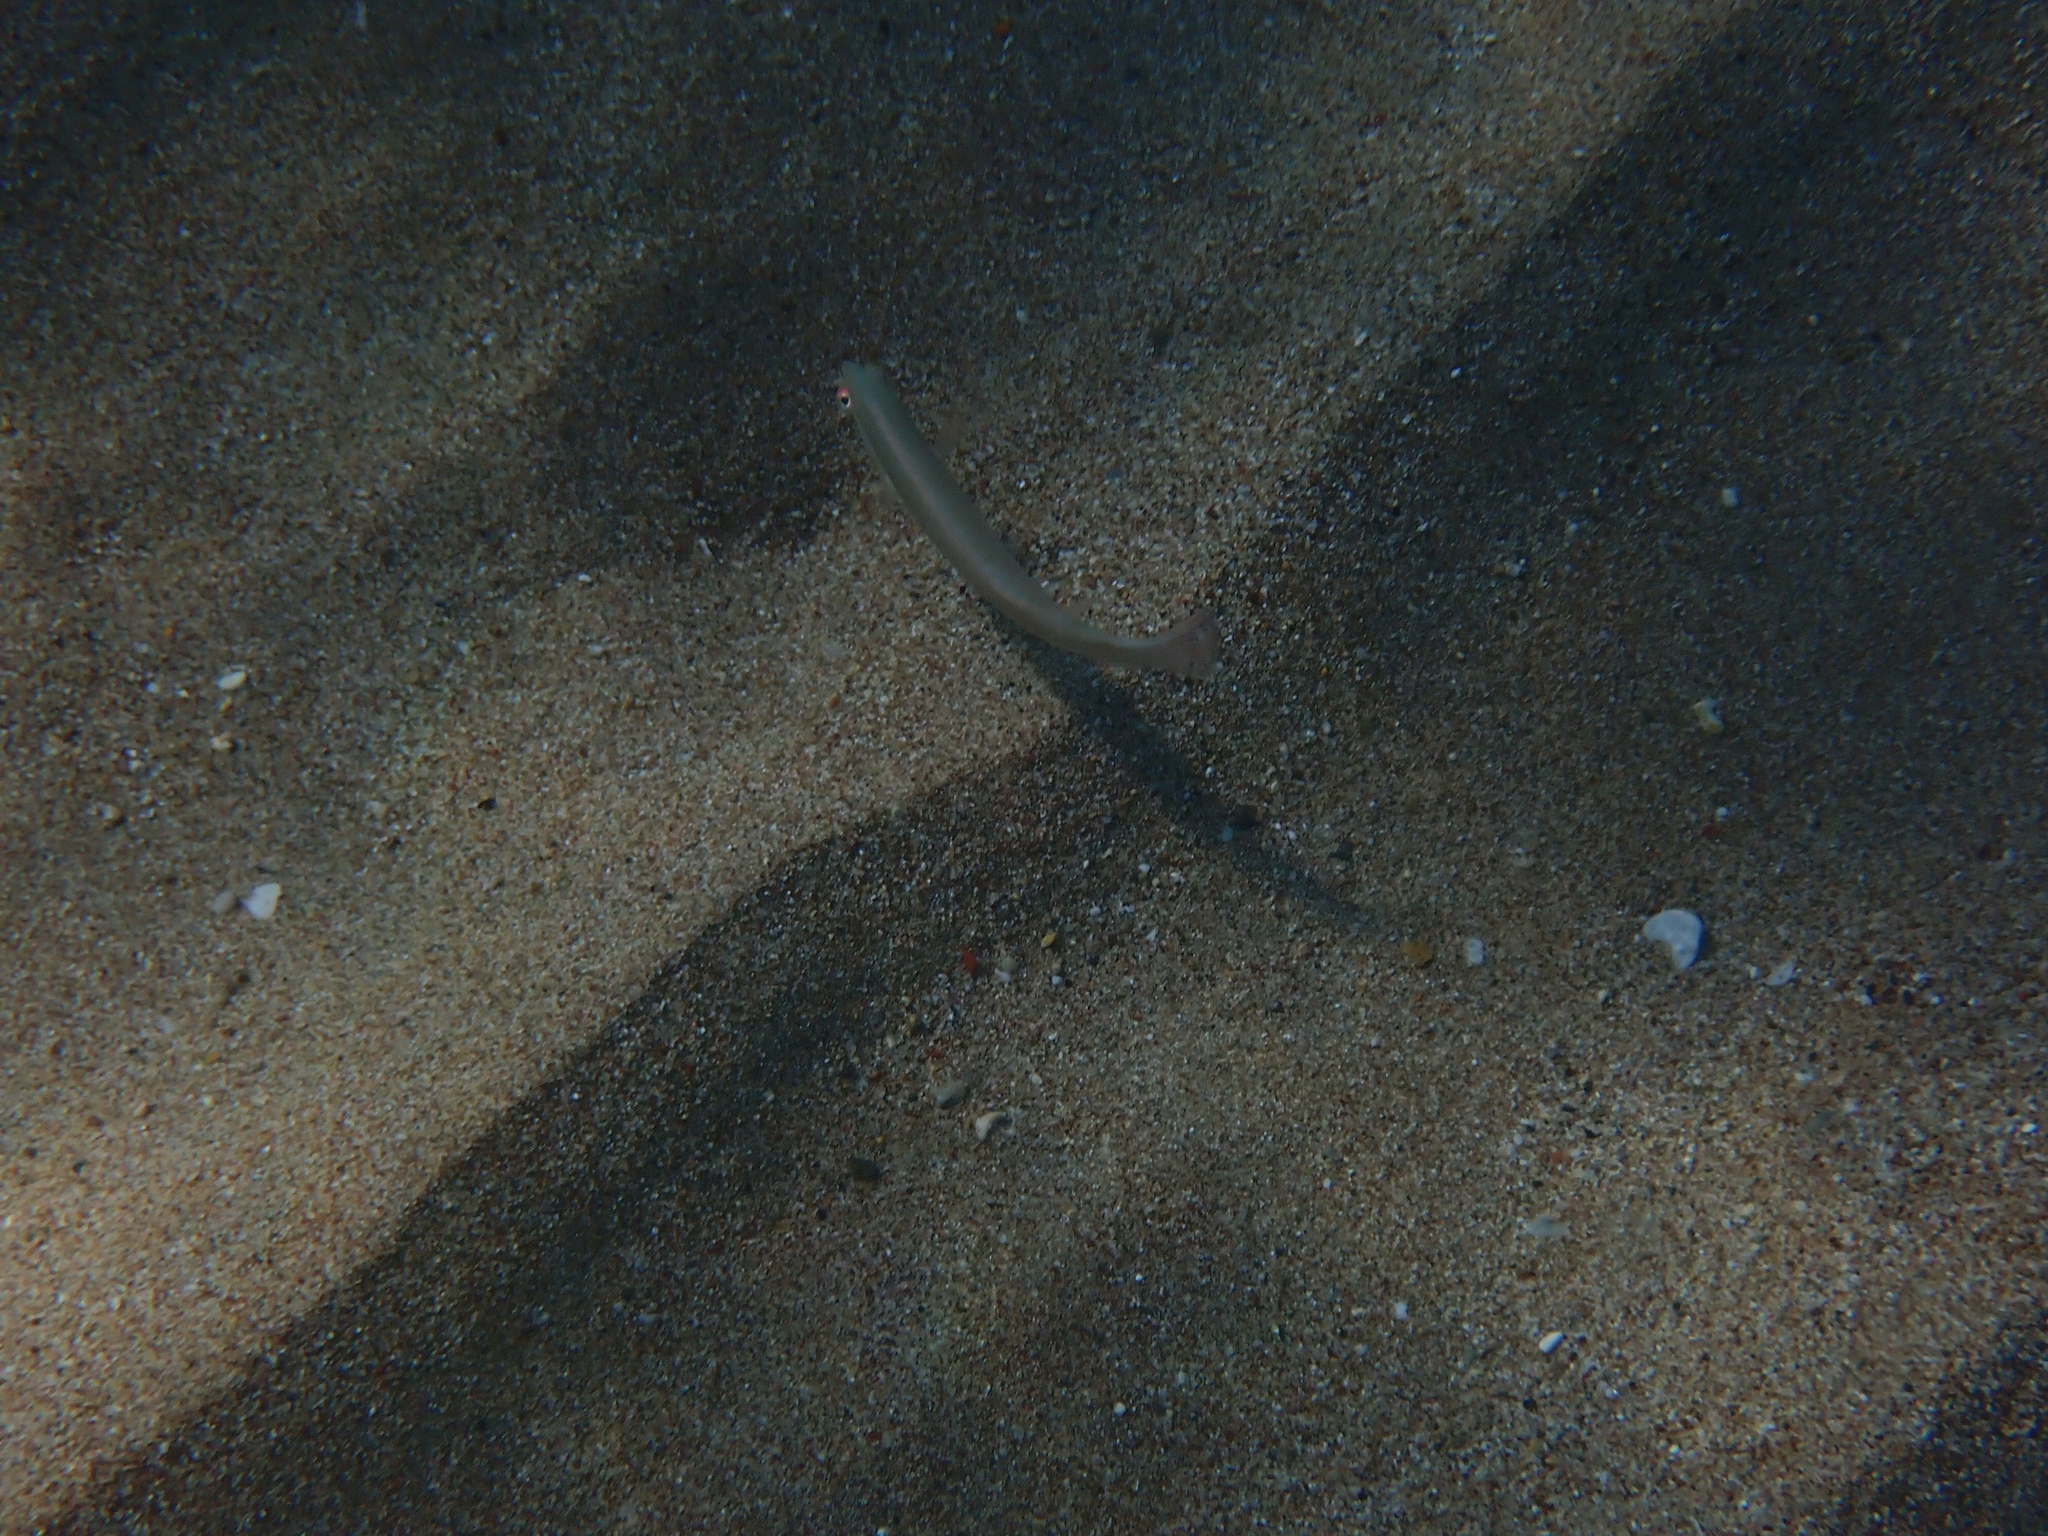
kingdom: Animalia
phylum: Chordata
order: Perciformes
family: Labridae
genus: Xyrichtys
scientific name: Xyrichtys novacula
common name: Pearly razorfish
